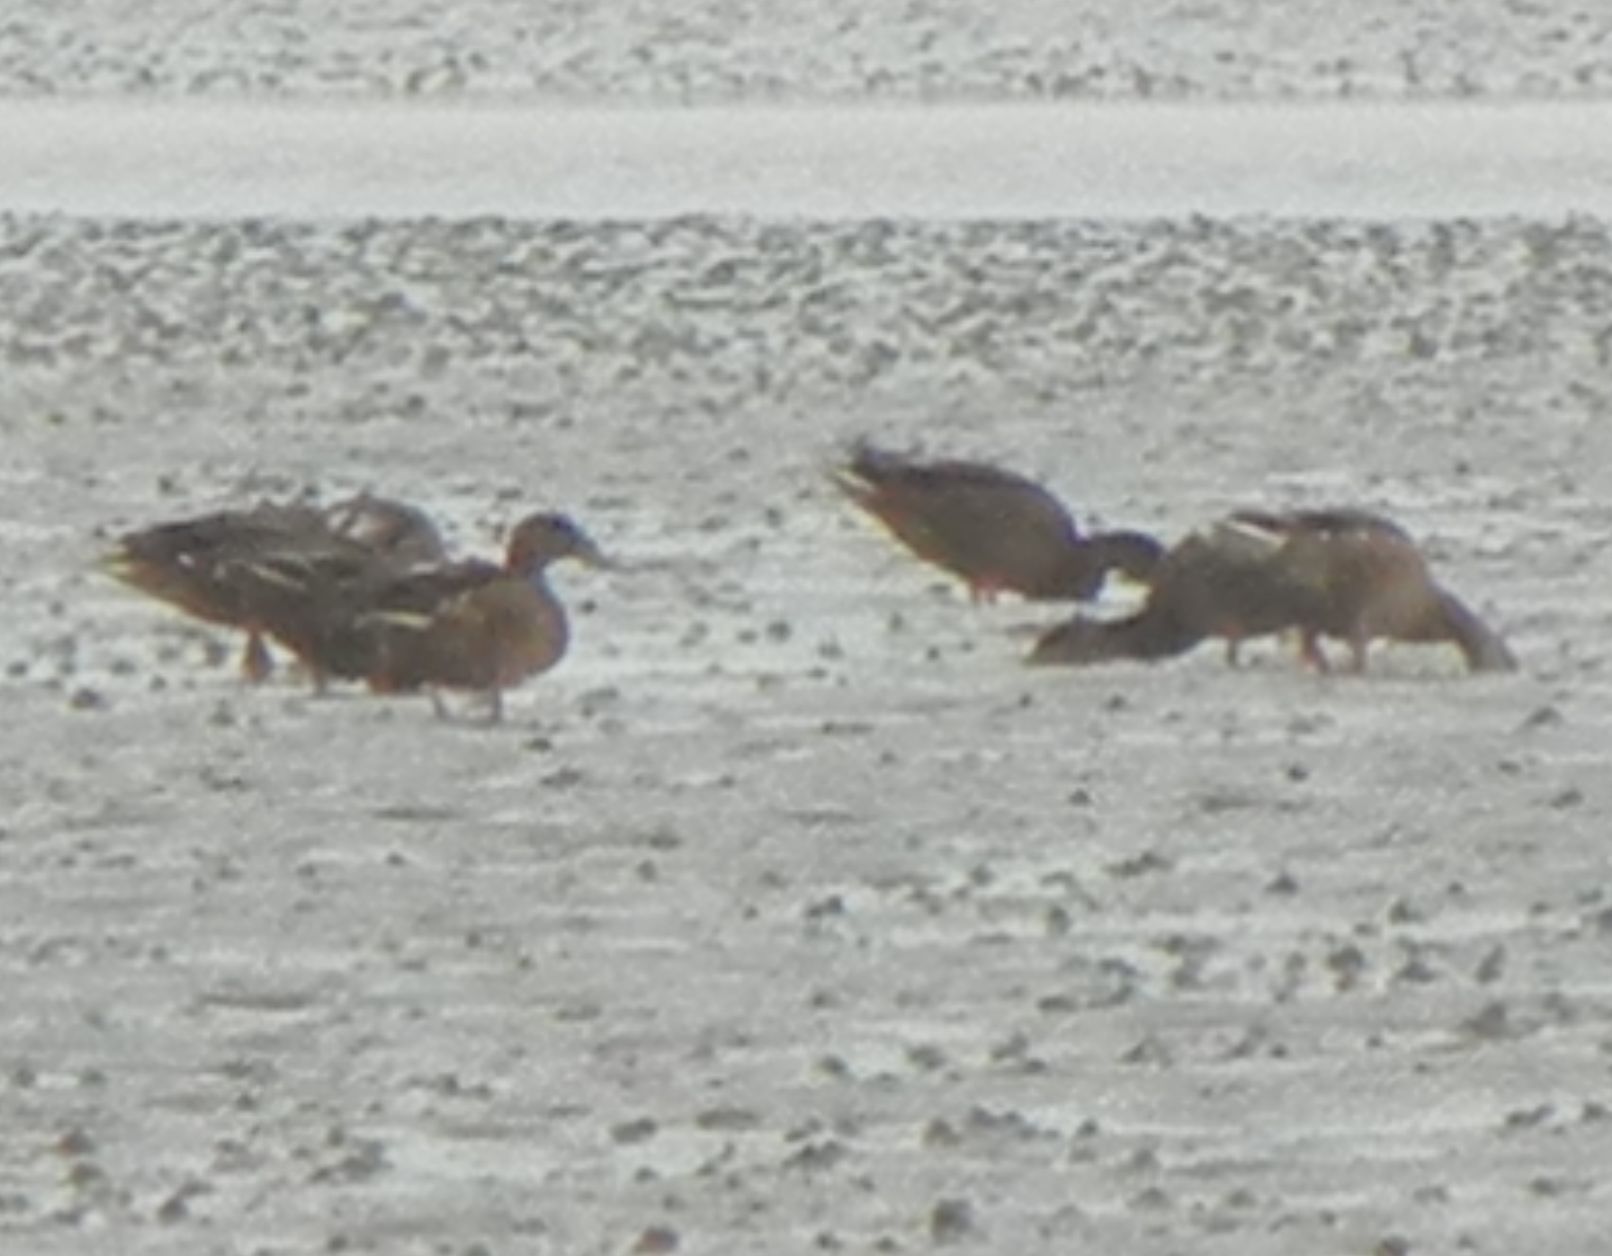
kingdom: Animalia
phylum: Chordata
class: Aves
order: Anseriformes
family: Anatidae
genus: Anas
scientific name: Anas platyrhynchos
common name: Mallard
